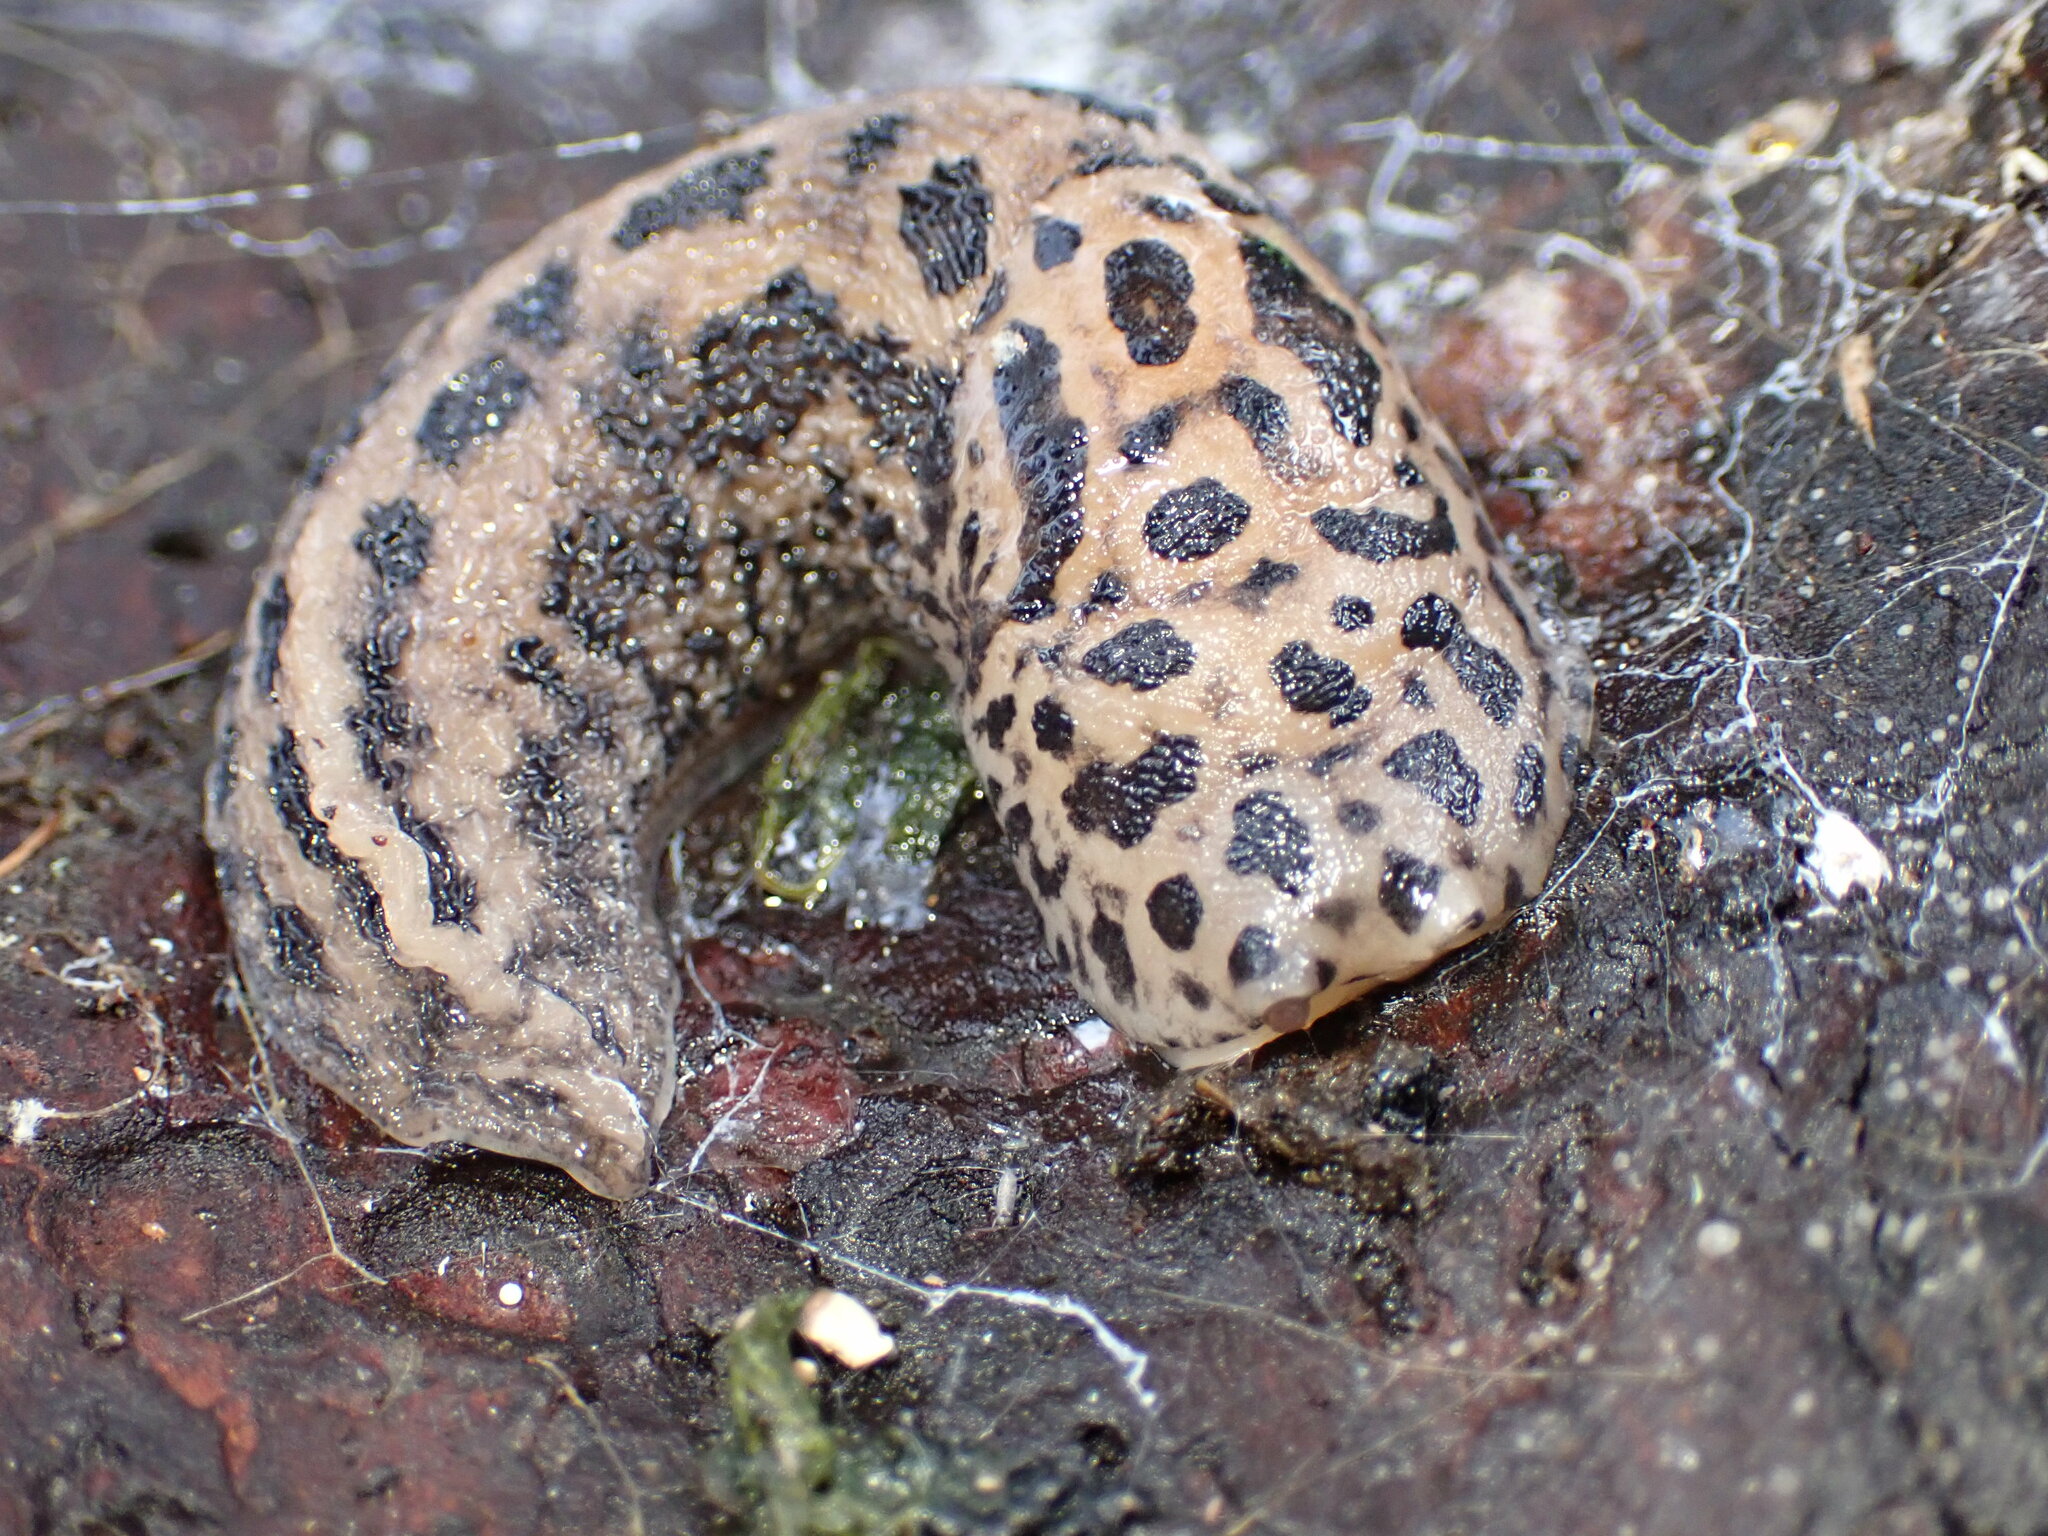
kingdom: Animalia
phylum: Mollusca
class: Gastropoda
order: Stylommatophora
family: Limacidae
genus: Limax
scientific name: Limax maximus
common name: Great grey slug
